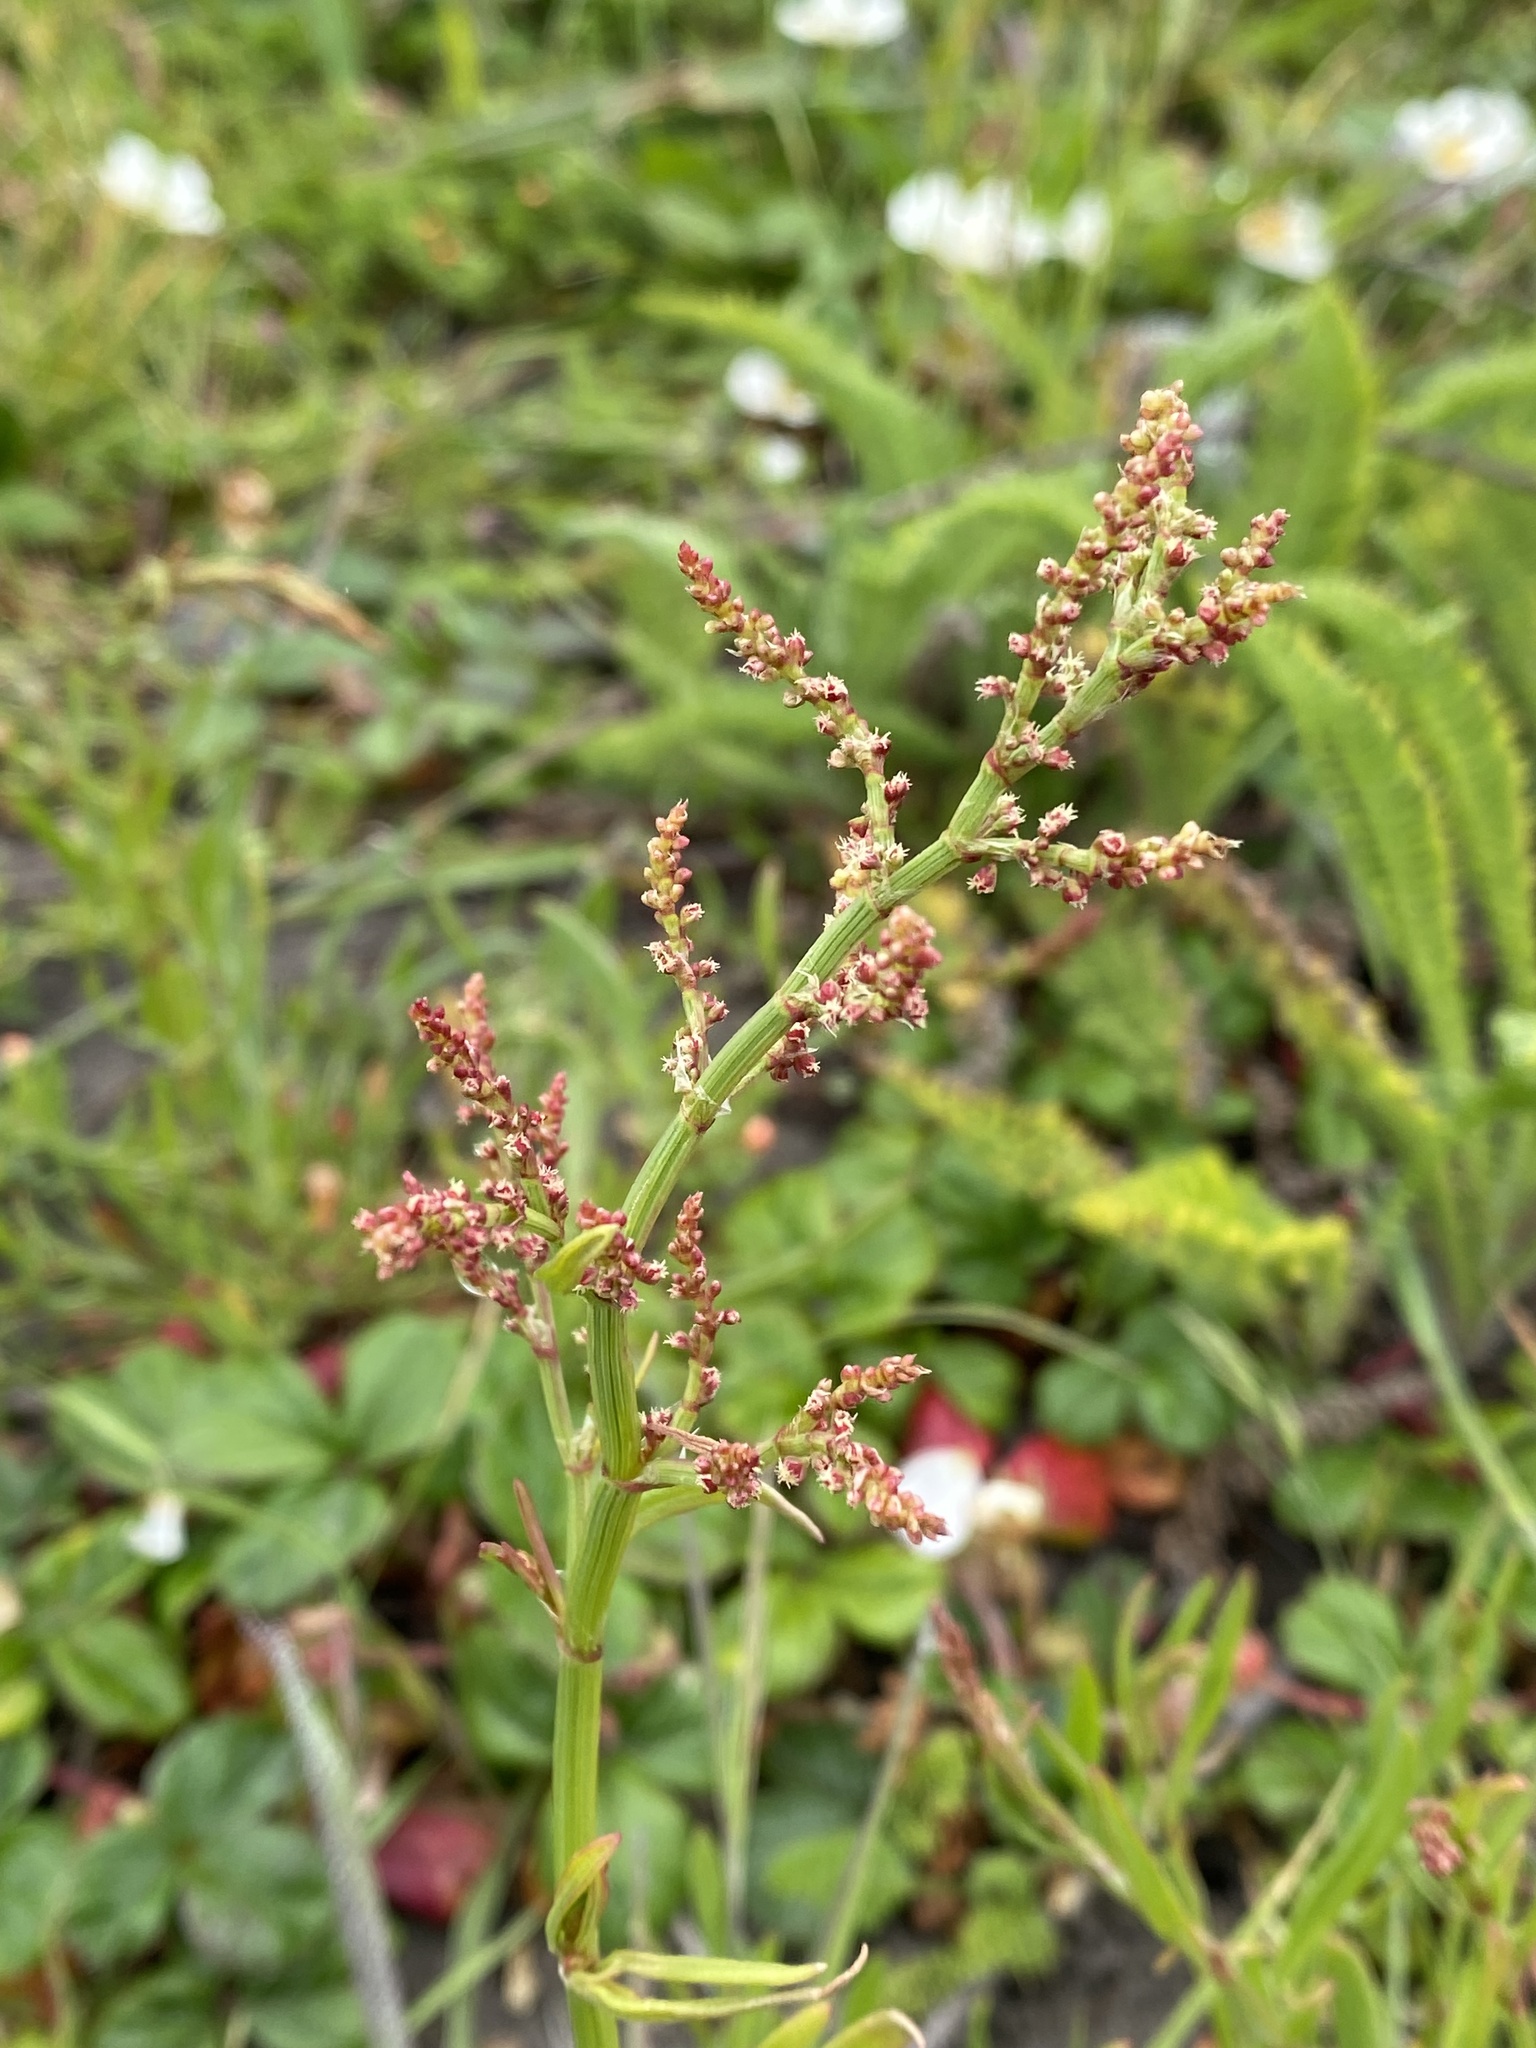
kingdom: Plantae
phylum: Tracheophyta
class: Magnoliopsida
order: Caryophyllales
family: Polygonaceae
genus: Rumex
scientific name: Rumex acetosella
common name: Common sheep sorrel
